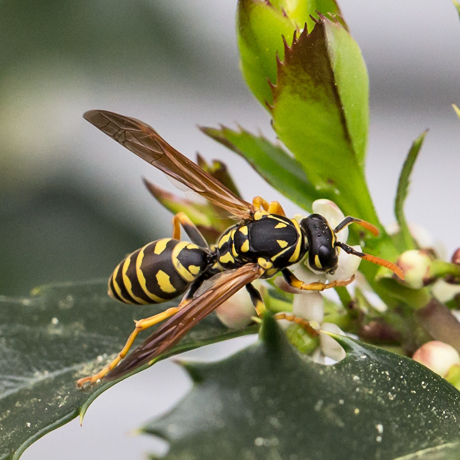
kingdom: Animalia
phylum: Arthropoda
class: Insecta
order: Hymenoptera
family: Eumenidae
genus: Polistes
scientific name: Polistes dominula
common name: Paper wasp
